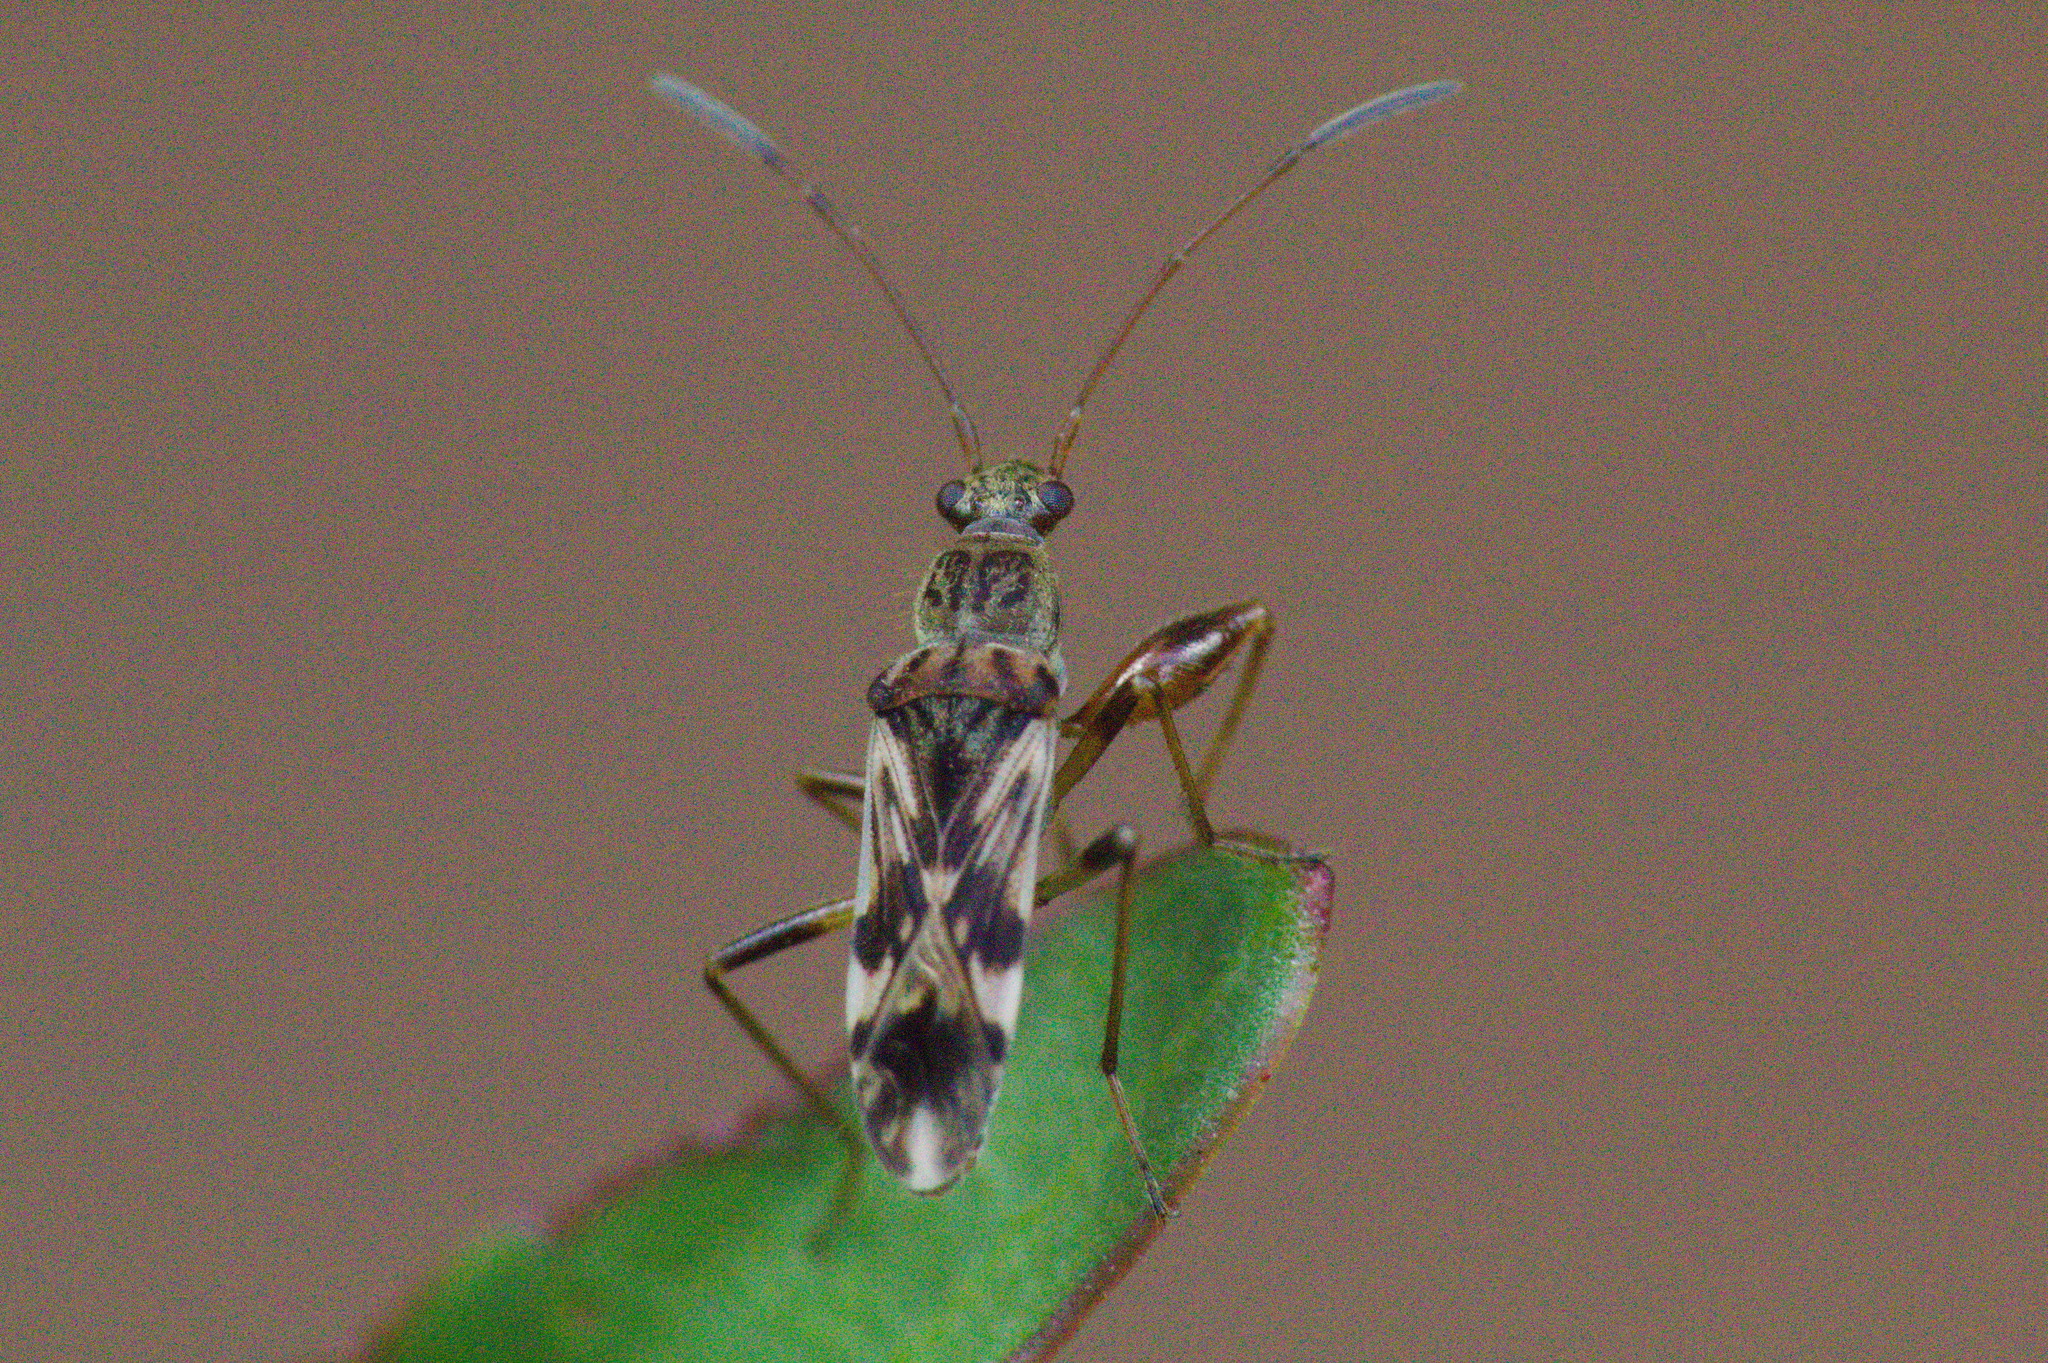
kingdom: Animalia
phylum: Arthropoda
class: Insecta
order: Hemiptera
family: Rhyparochromidae
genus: Neopamera
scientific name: Neopamera bilobata
